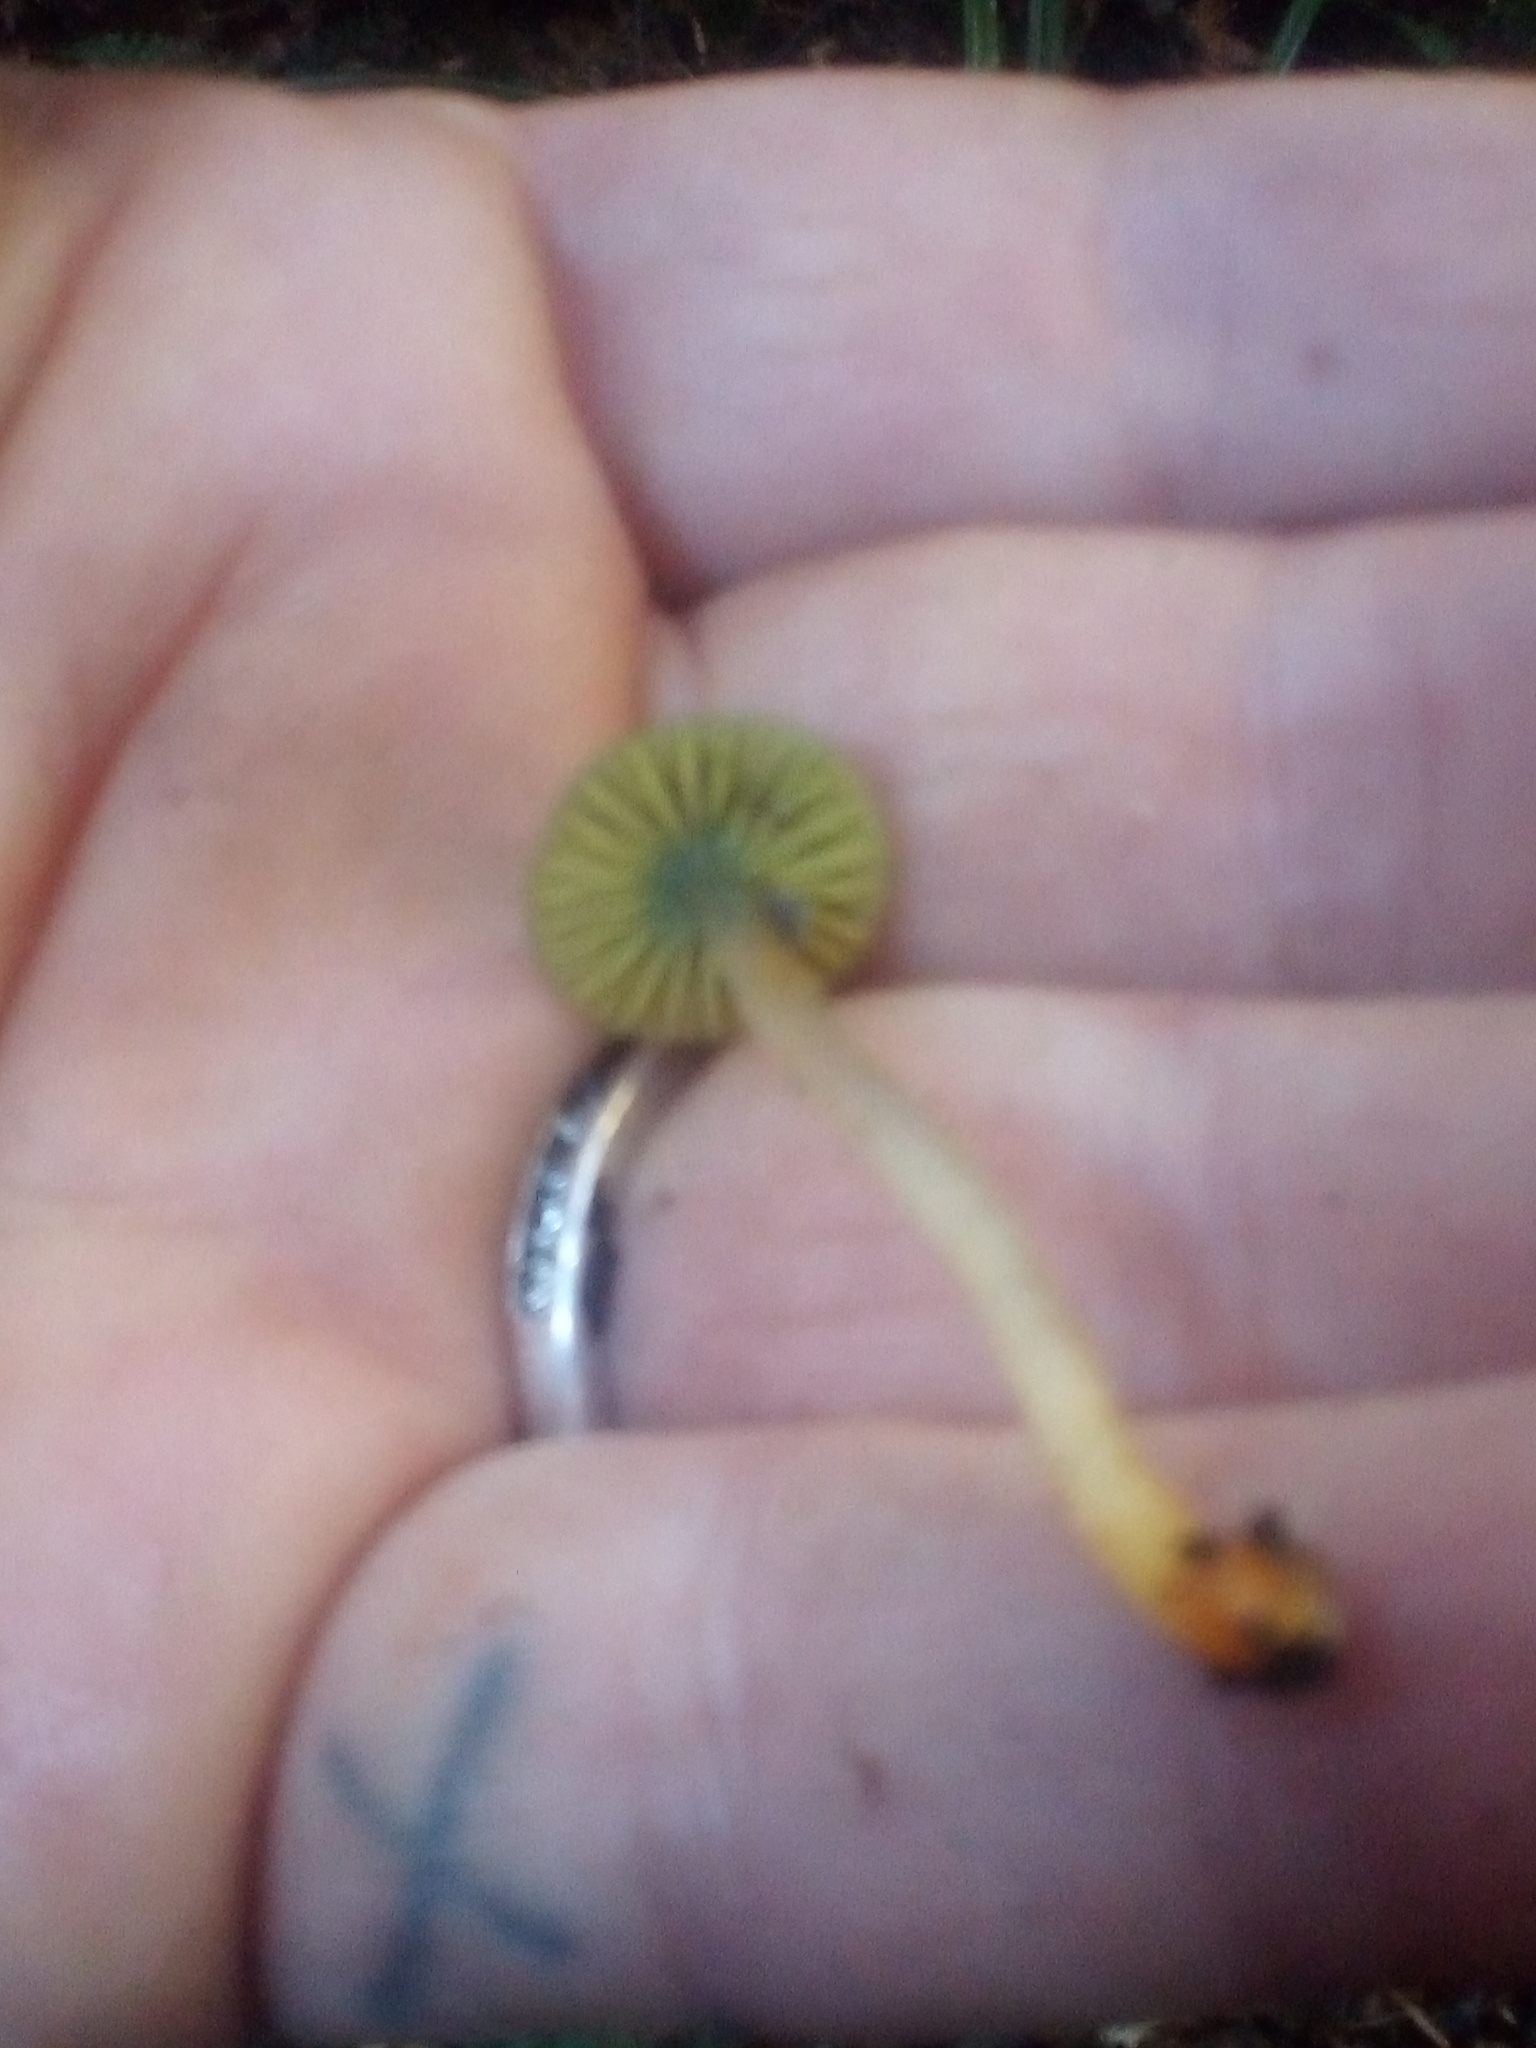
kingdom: Fungi
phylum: Basidiomycota
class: Agaricomycetes
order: Agaricales
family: Hygrophoraceae
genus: Humidicutis
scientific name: Humidicutis luteovirens
